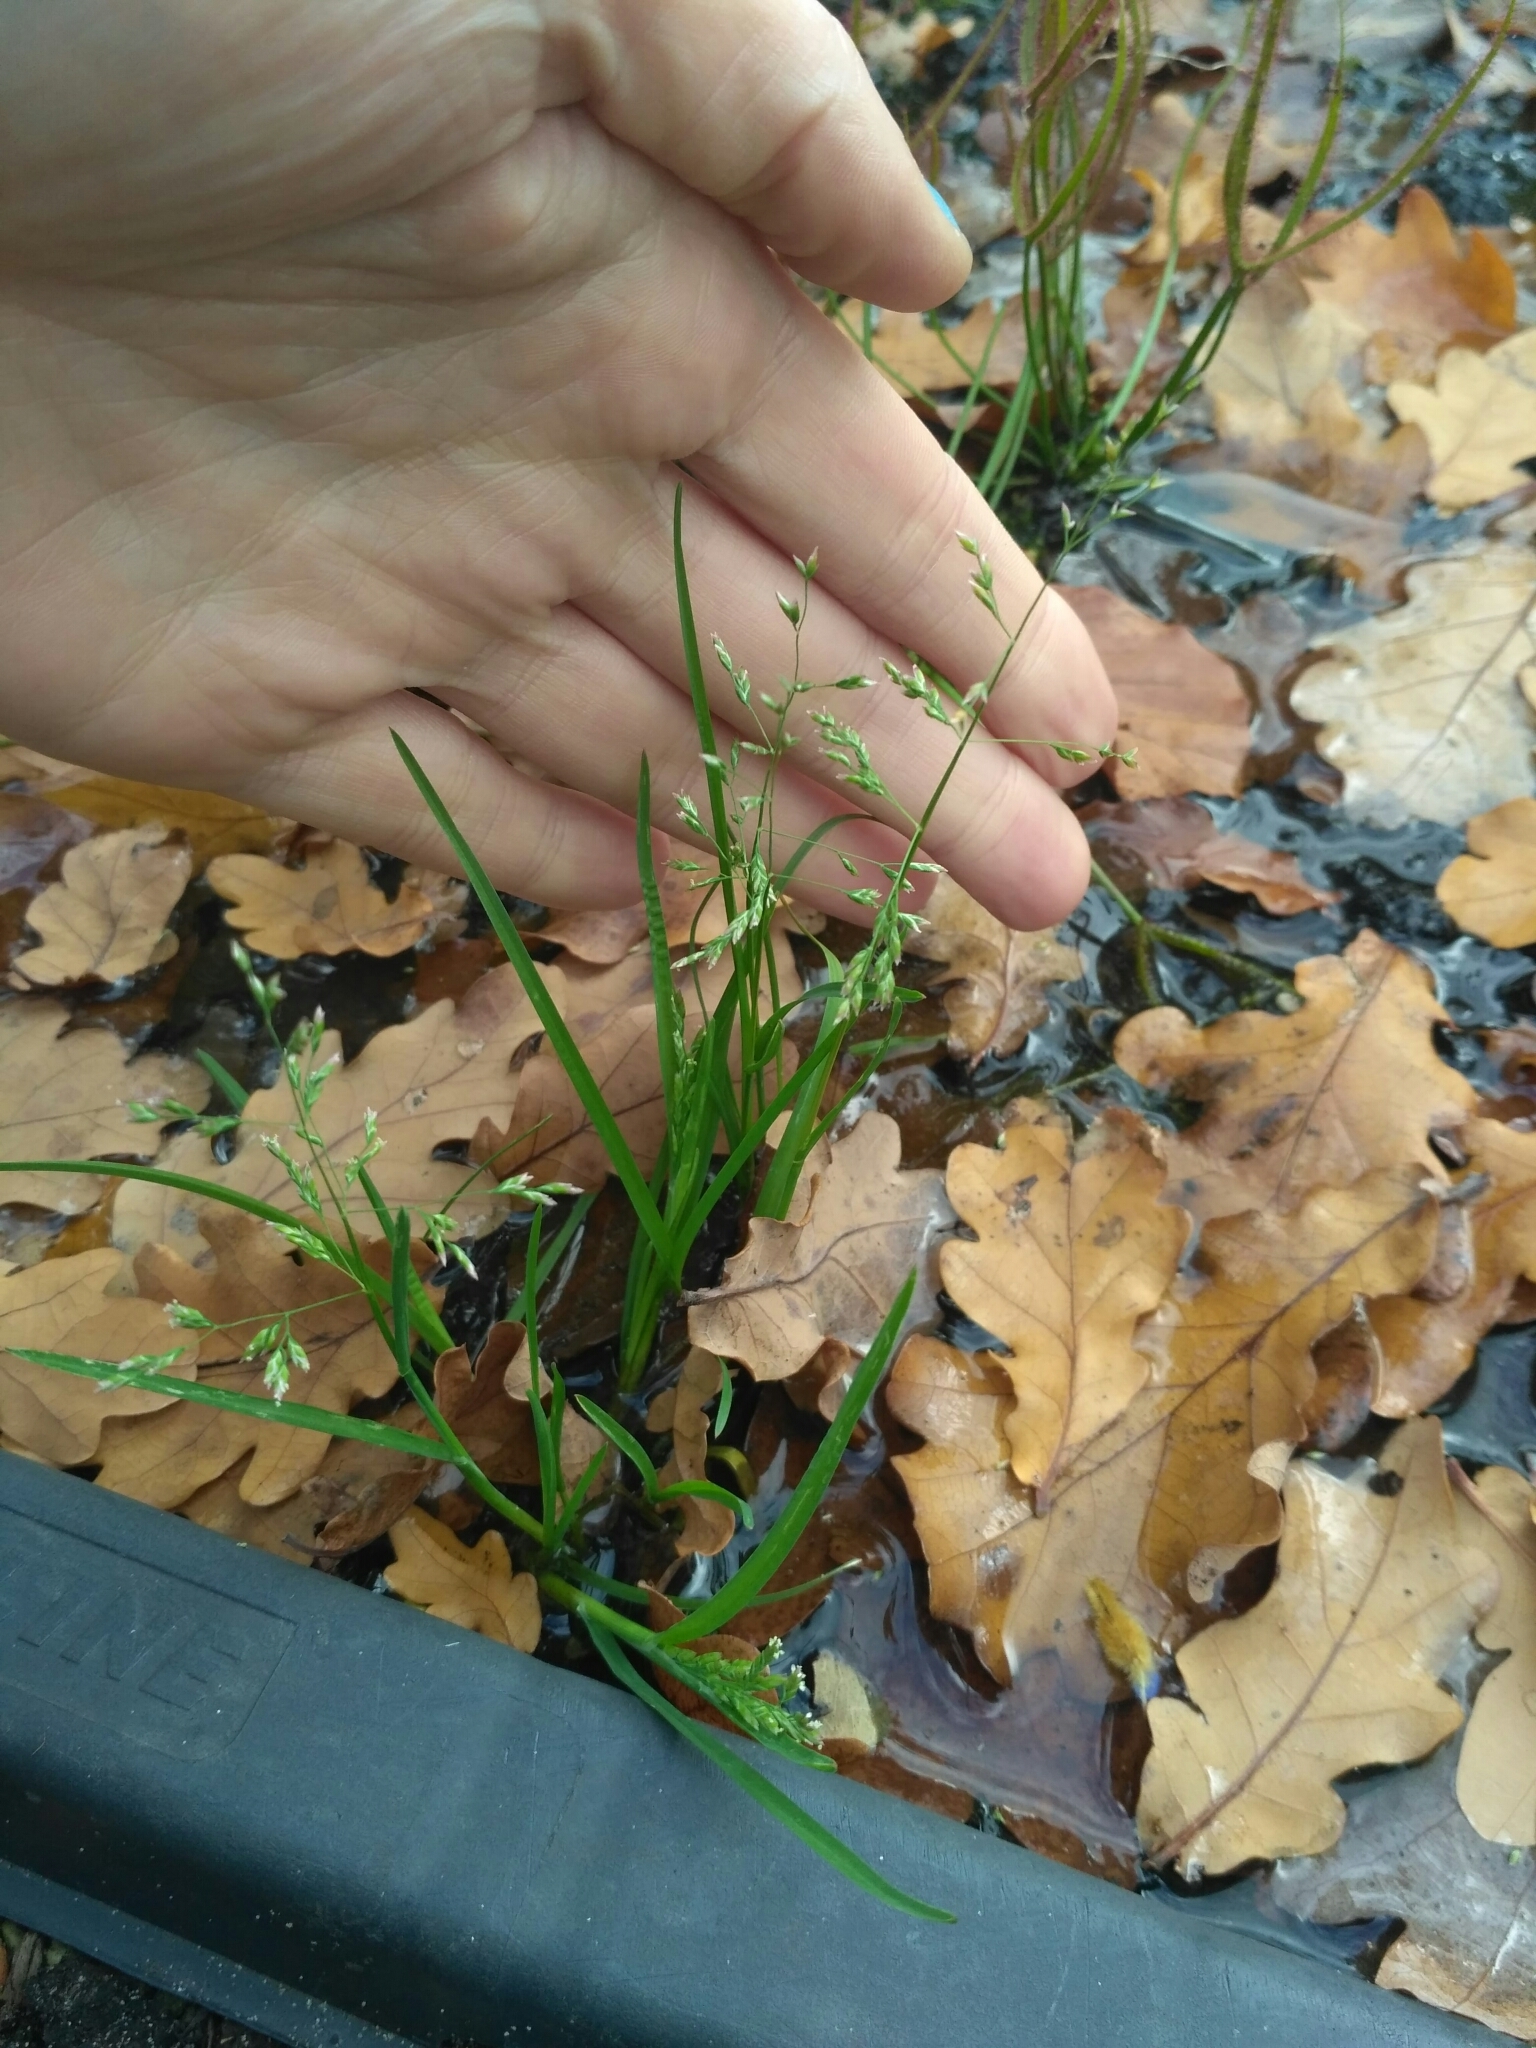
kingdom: Plantae
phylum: Tracheophyta
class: Liliopsida
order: Poales
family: Poaceae
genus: Poa
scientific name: Poa annua
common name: Annual bluegrass
